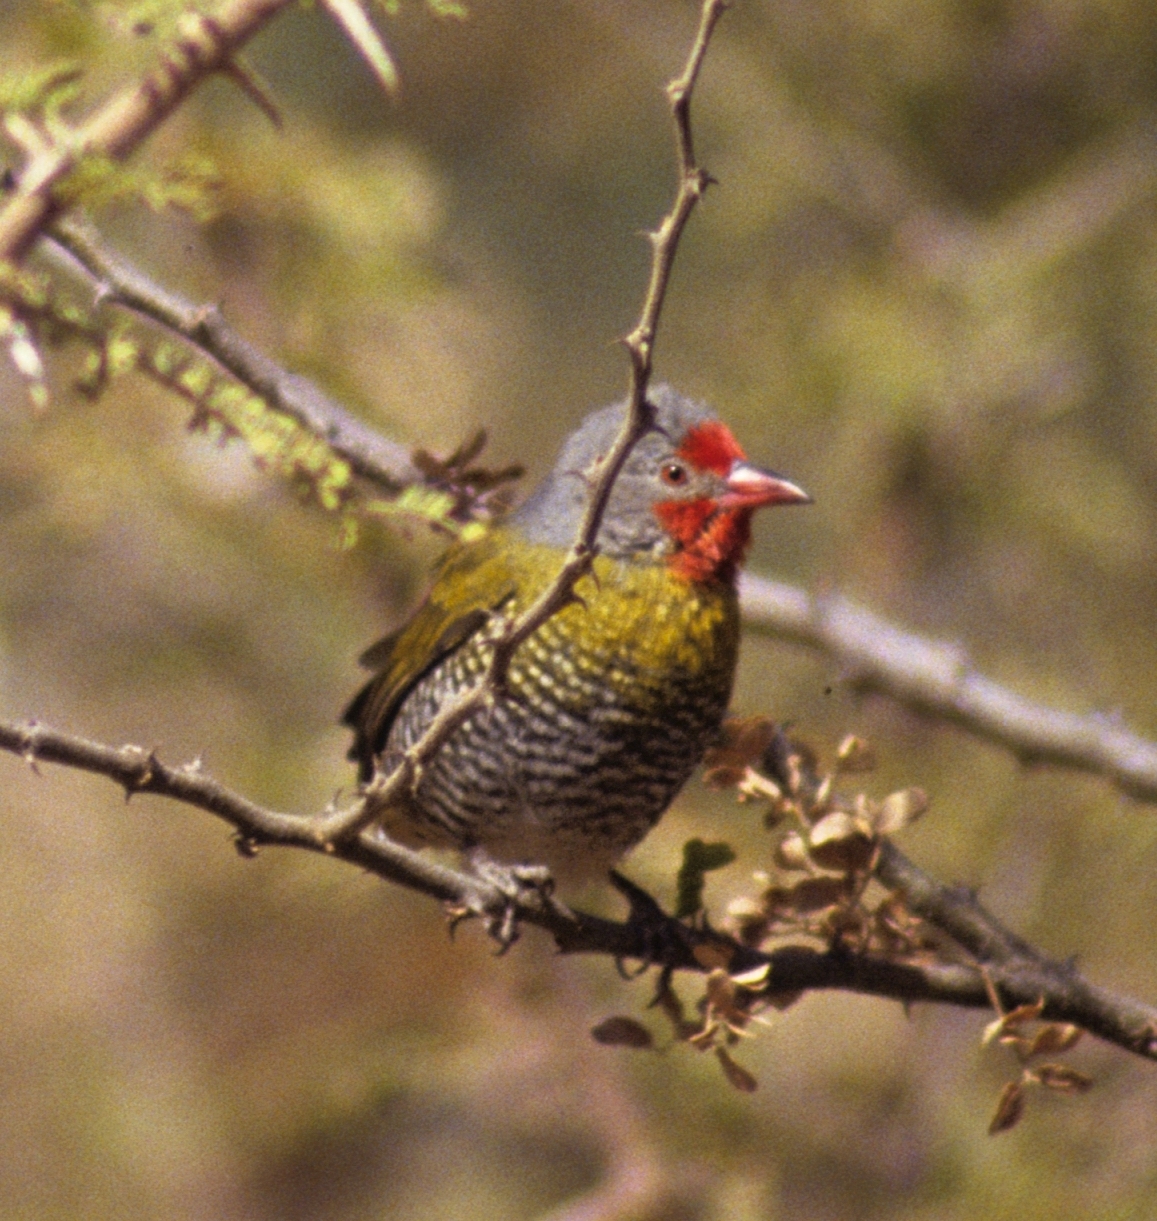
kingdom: Animalia
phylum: Chordata
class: Aves
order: Passeriformes
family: Estrildidae
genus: Pytilia
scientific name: Pytilia melba
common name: Green-winged pytilia
